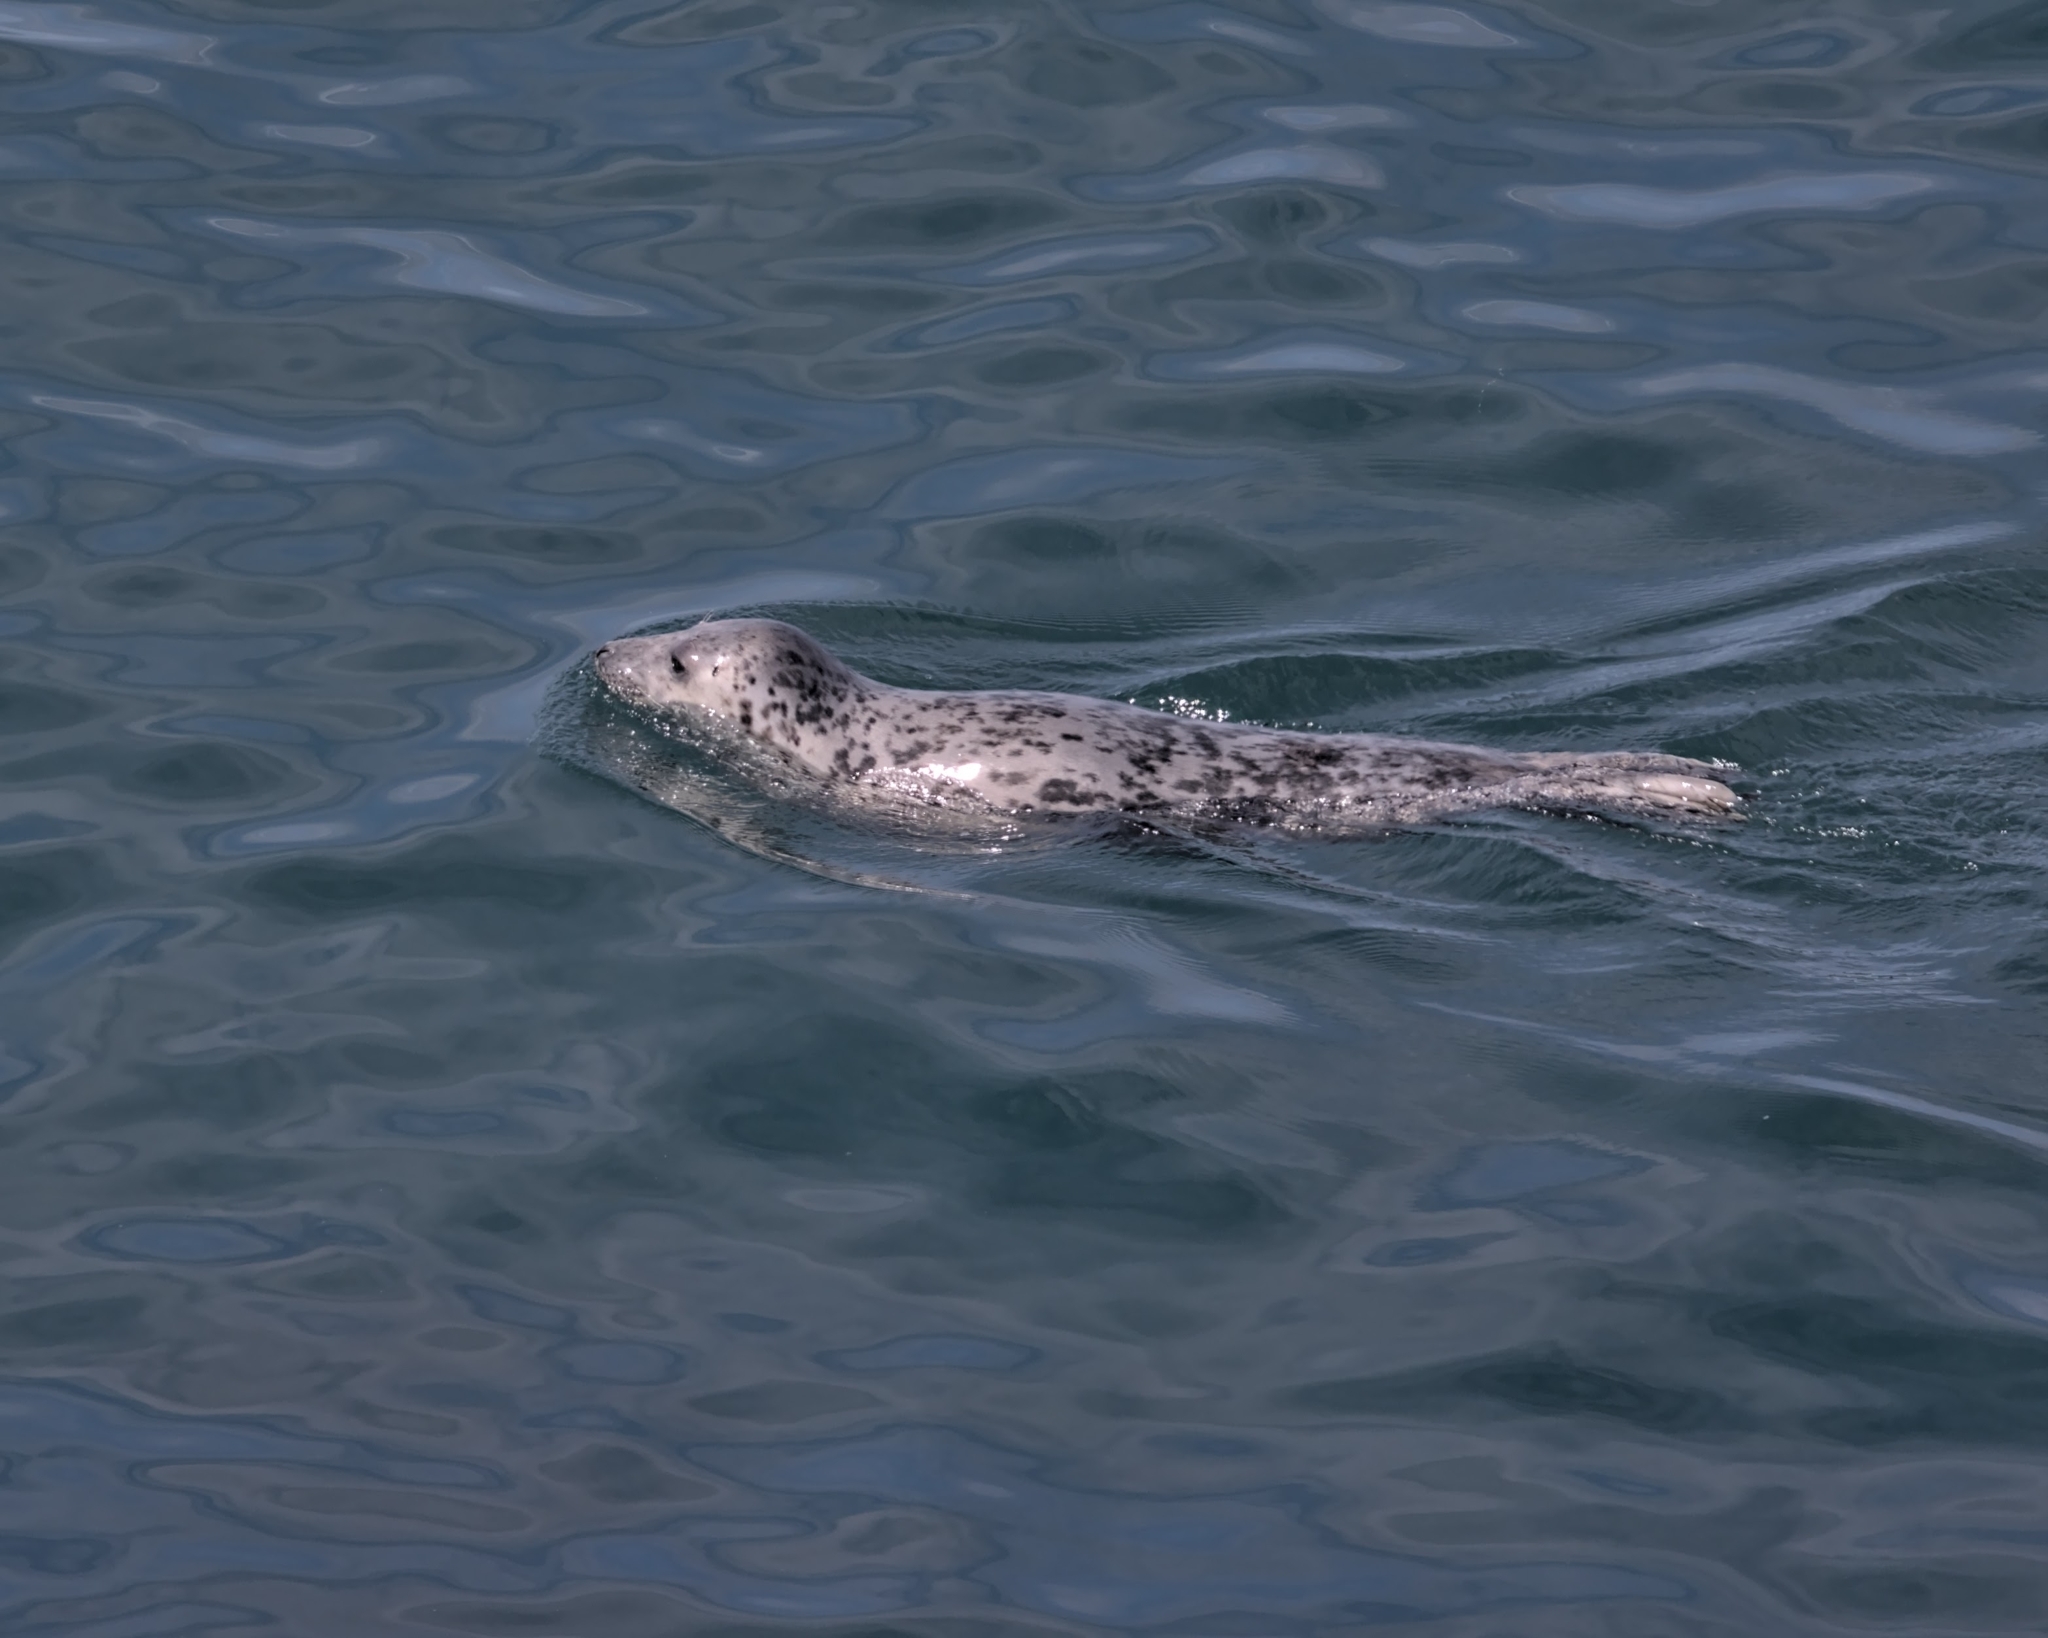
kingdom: Animalia
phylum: Chordata
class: Mammalia
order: Carnivora
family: Phocidae
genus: Halichoerus
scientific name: Halichoerus grypus
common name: Grey seal
